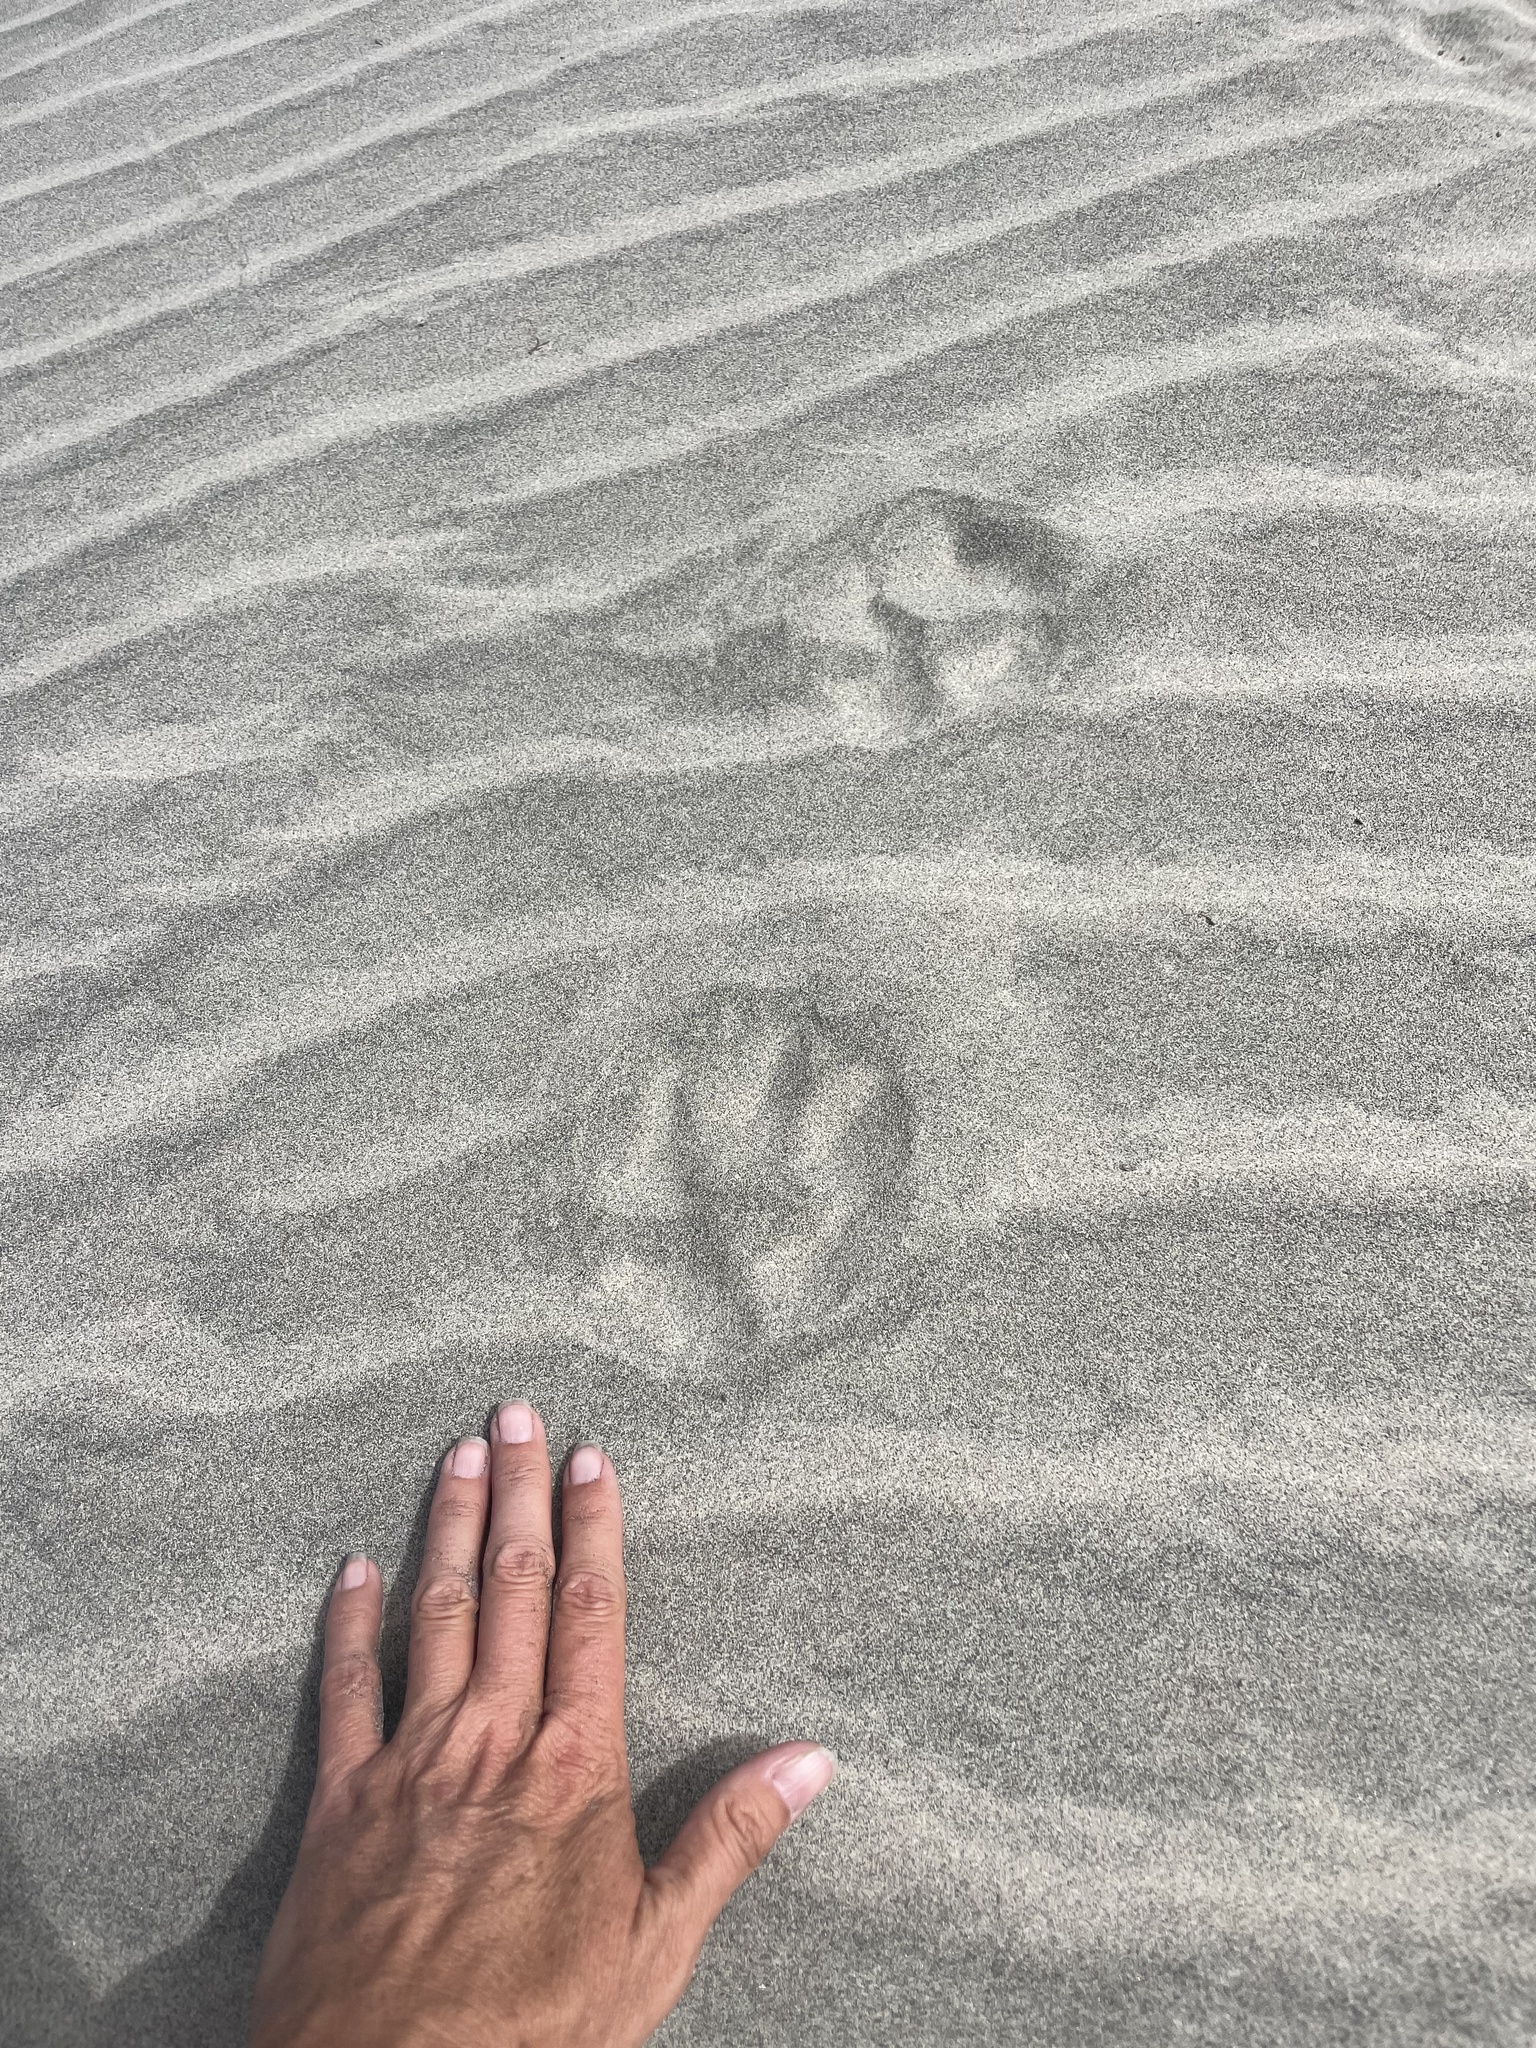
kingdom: Animalia
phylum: Chordata
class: Mammalia
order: Carnivora
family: Canidae
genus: Canis
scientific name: Canis
